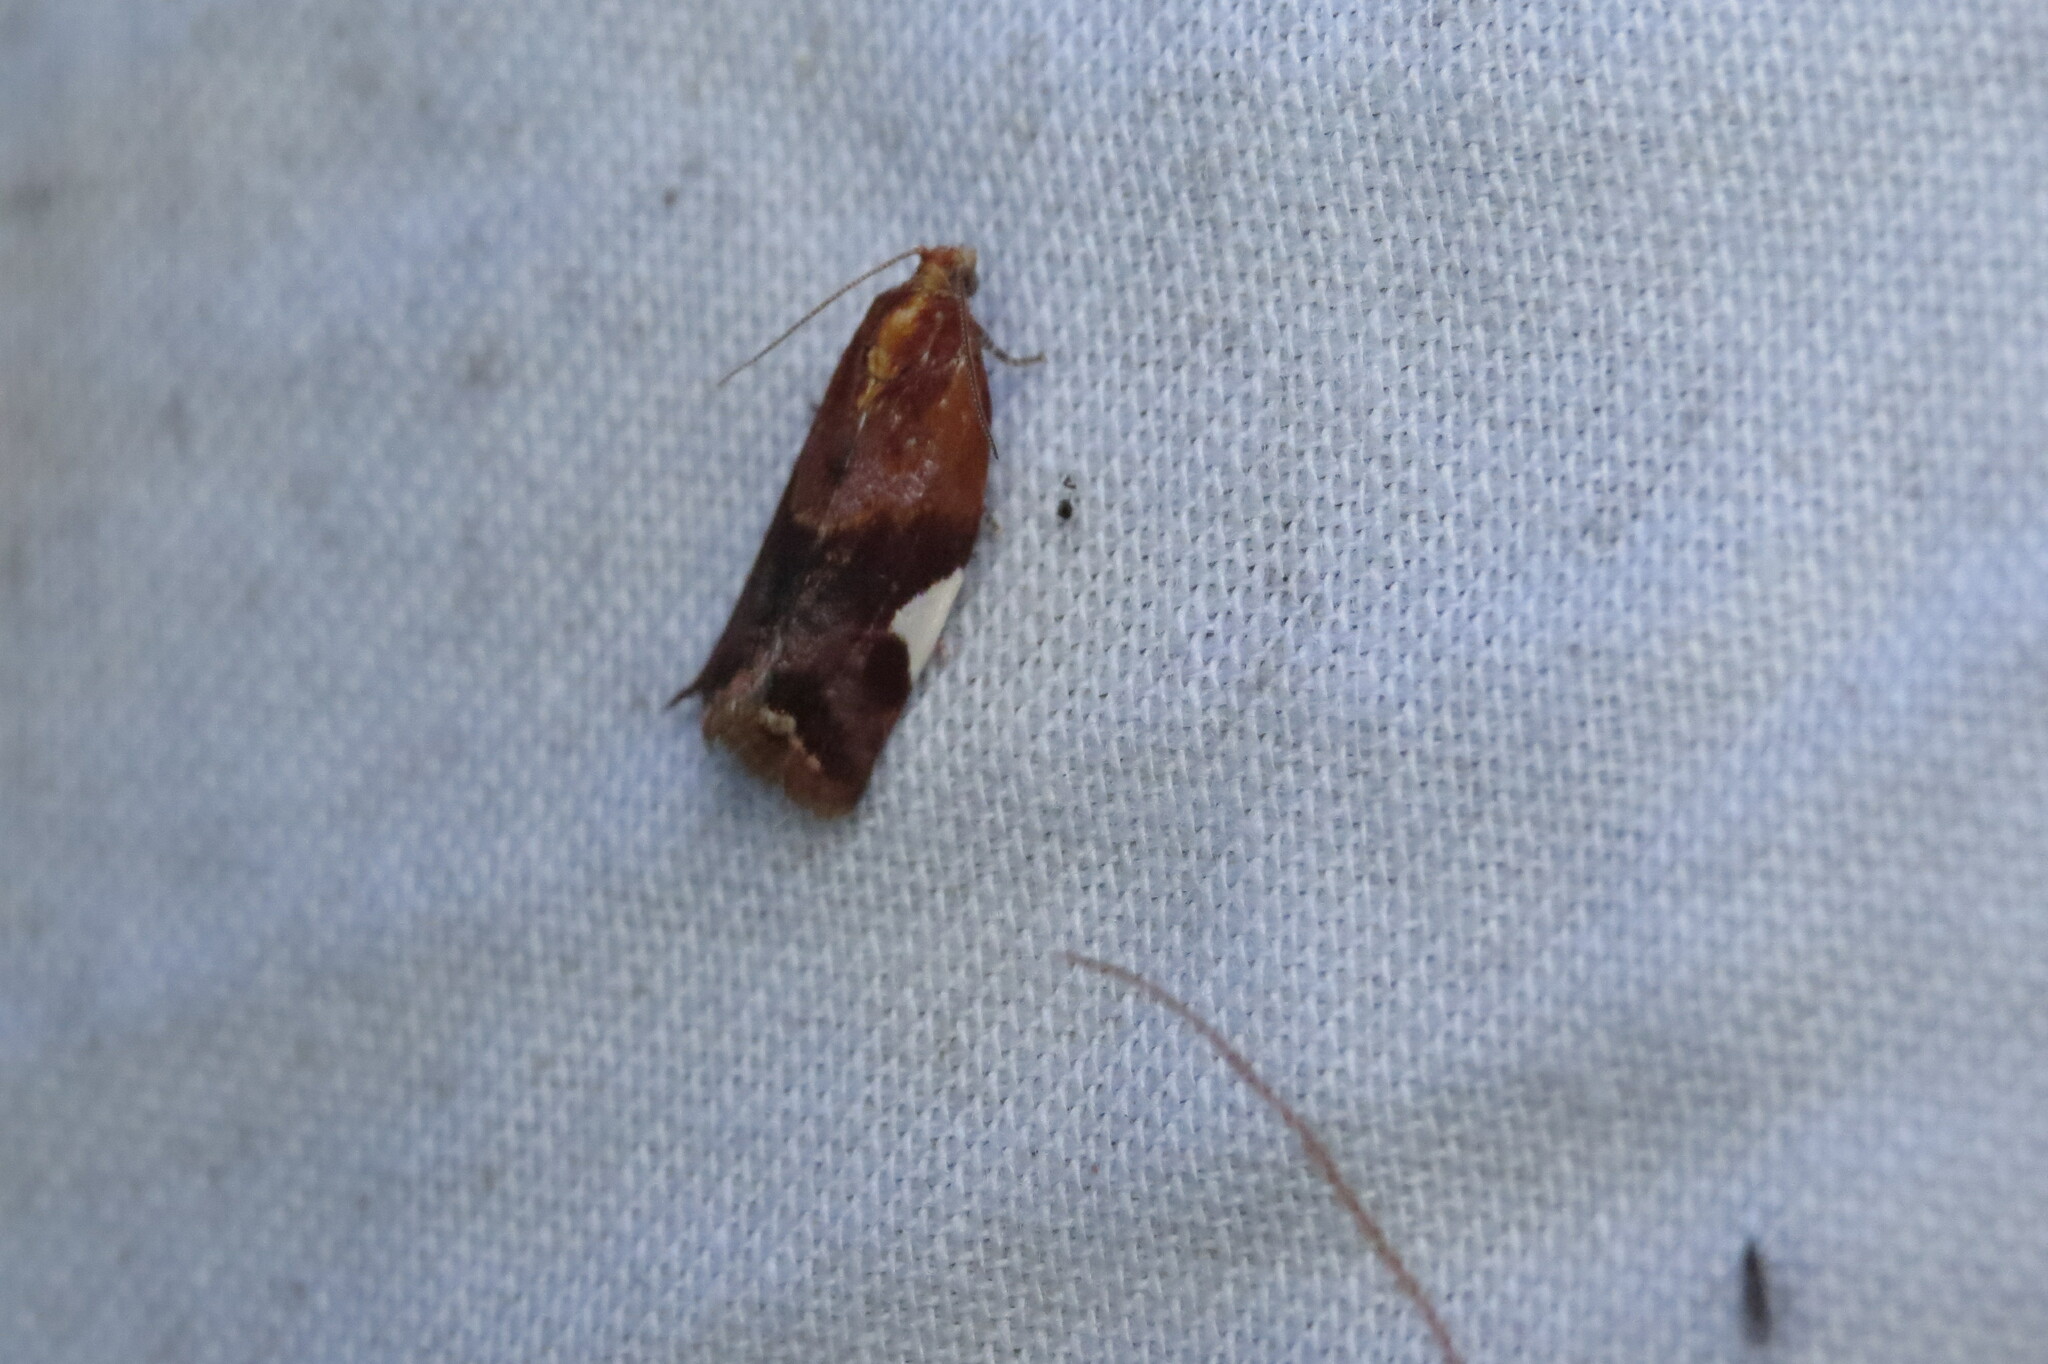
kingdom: Animalia
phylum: Arthropoda
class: Insecta
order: Lepidoptera
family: Tortricidae
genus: Clepsis
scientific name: Clepsis persicana
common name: White triangle tortrix
